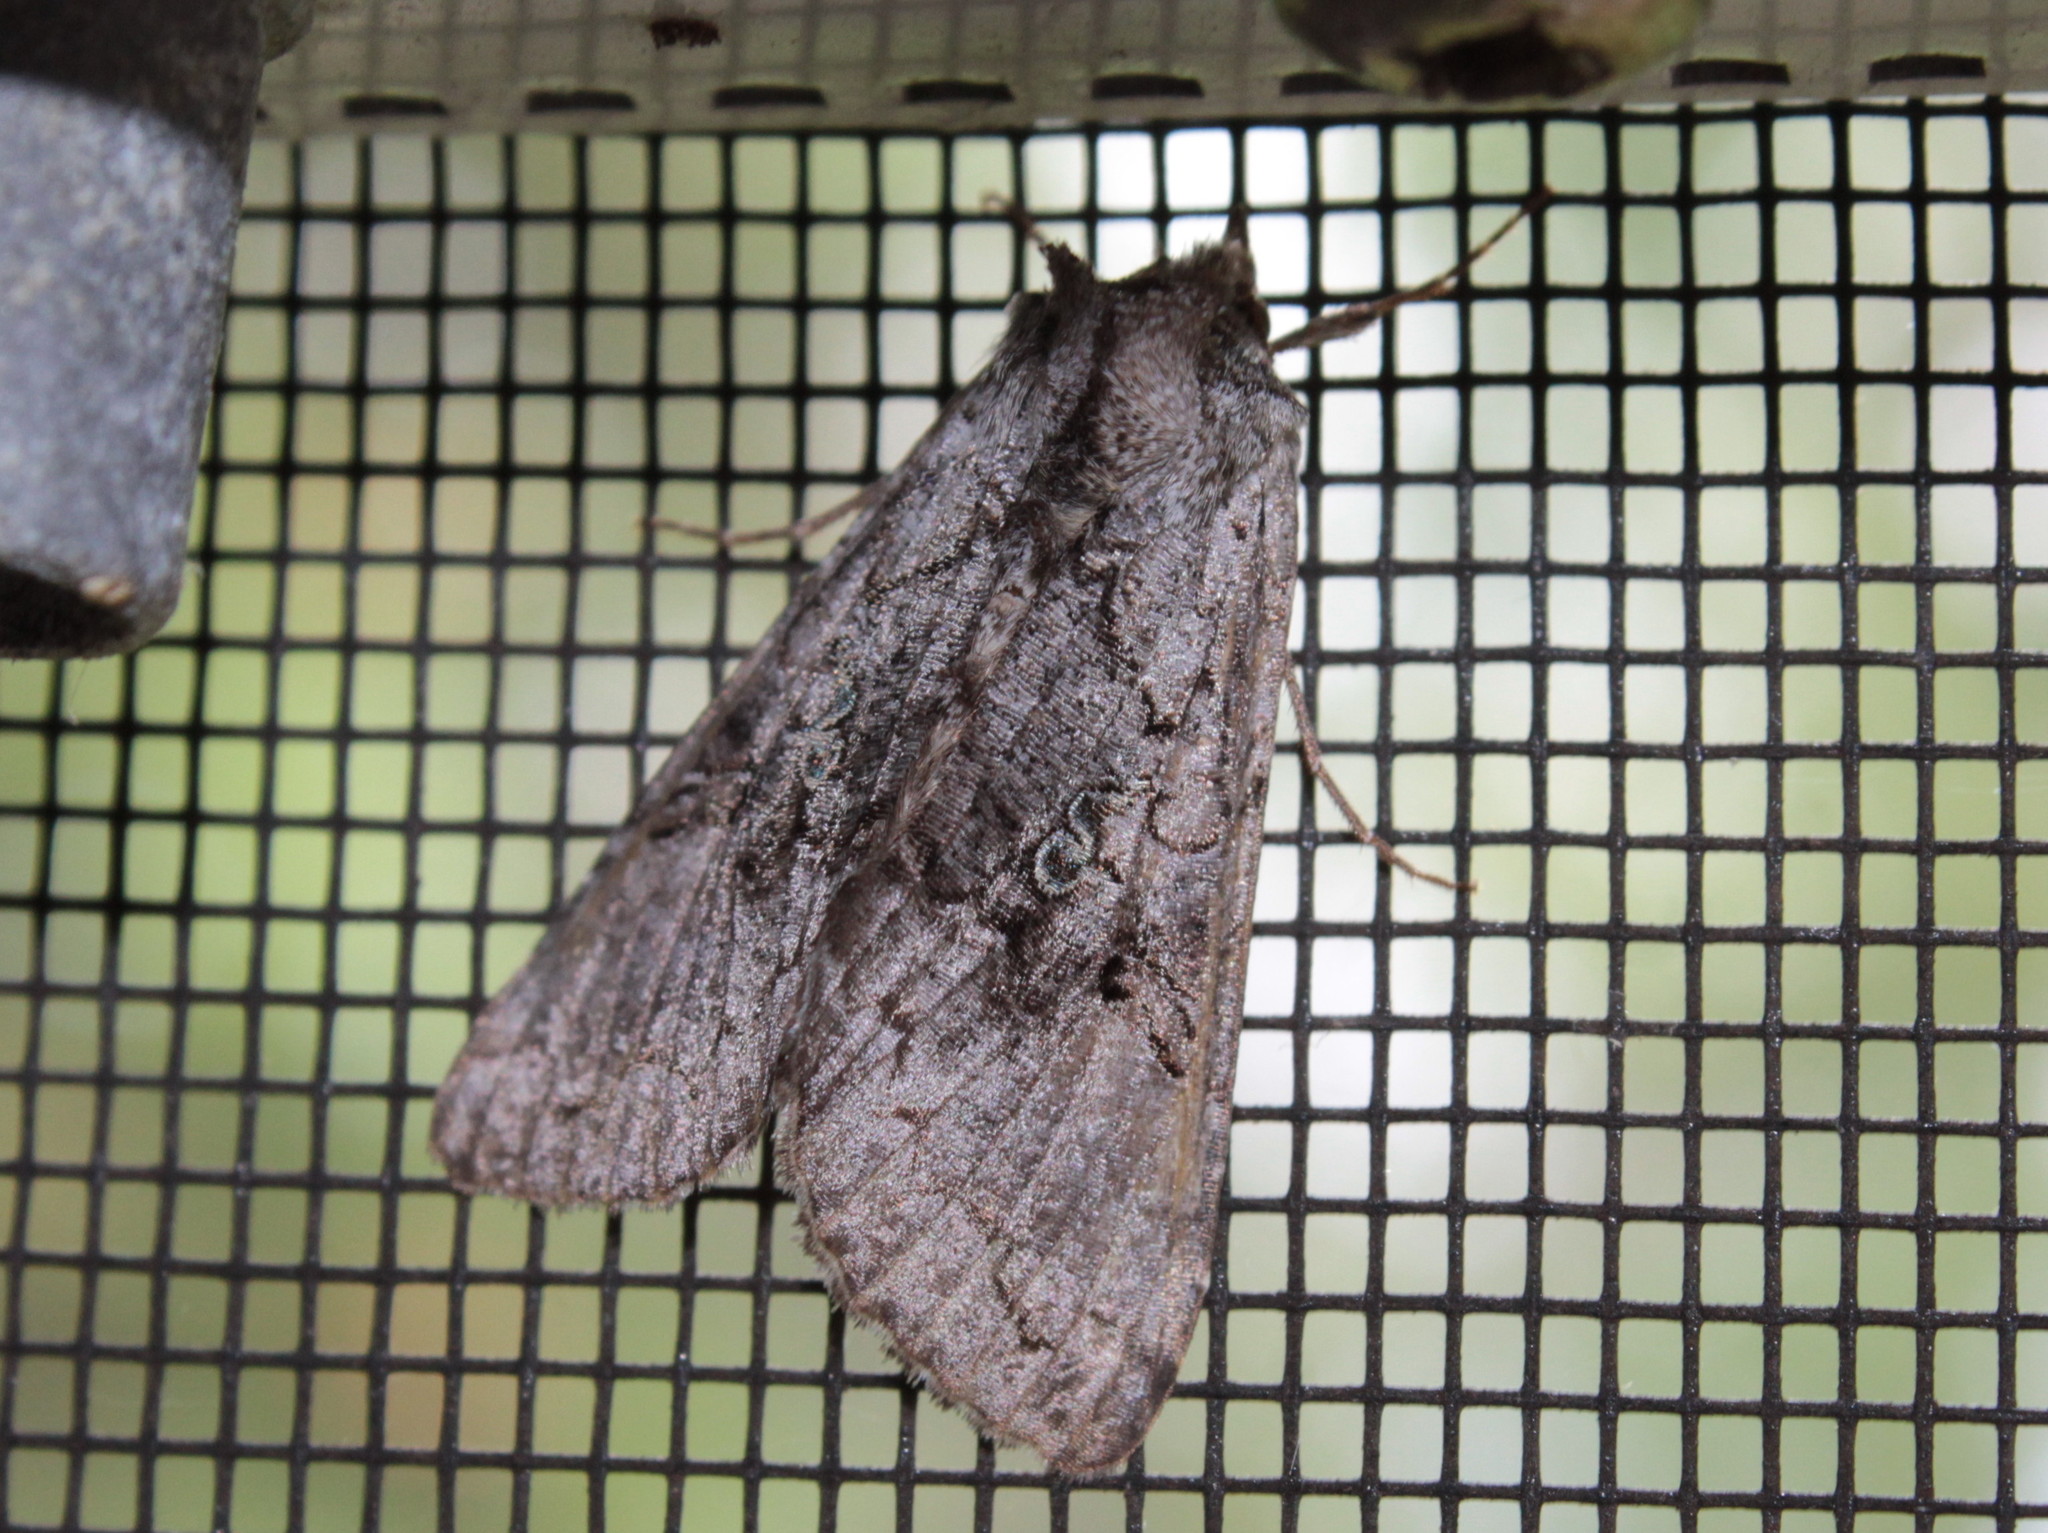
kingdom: Animalia
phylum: Arthropoda
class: Insecta
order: Lepidoptera
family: Noctuidae
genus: Syngrapha
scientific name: Syngrapha viridisigma
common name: Spruce false looper moth
